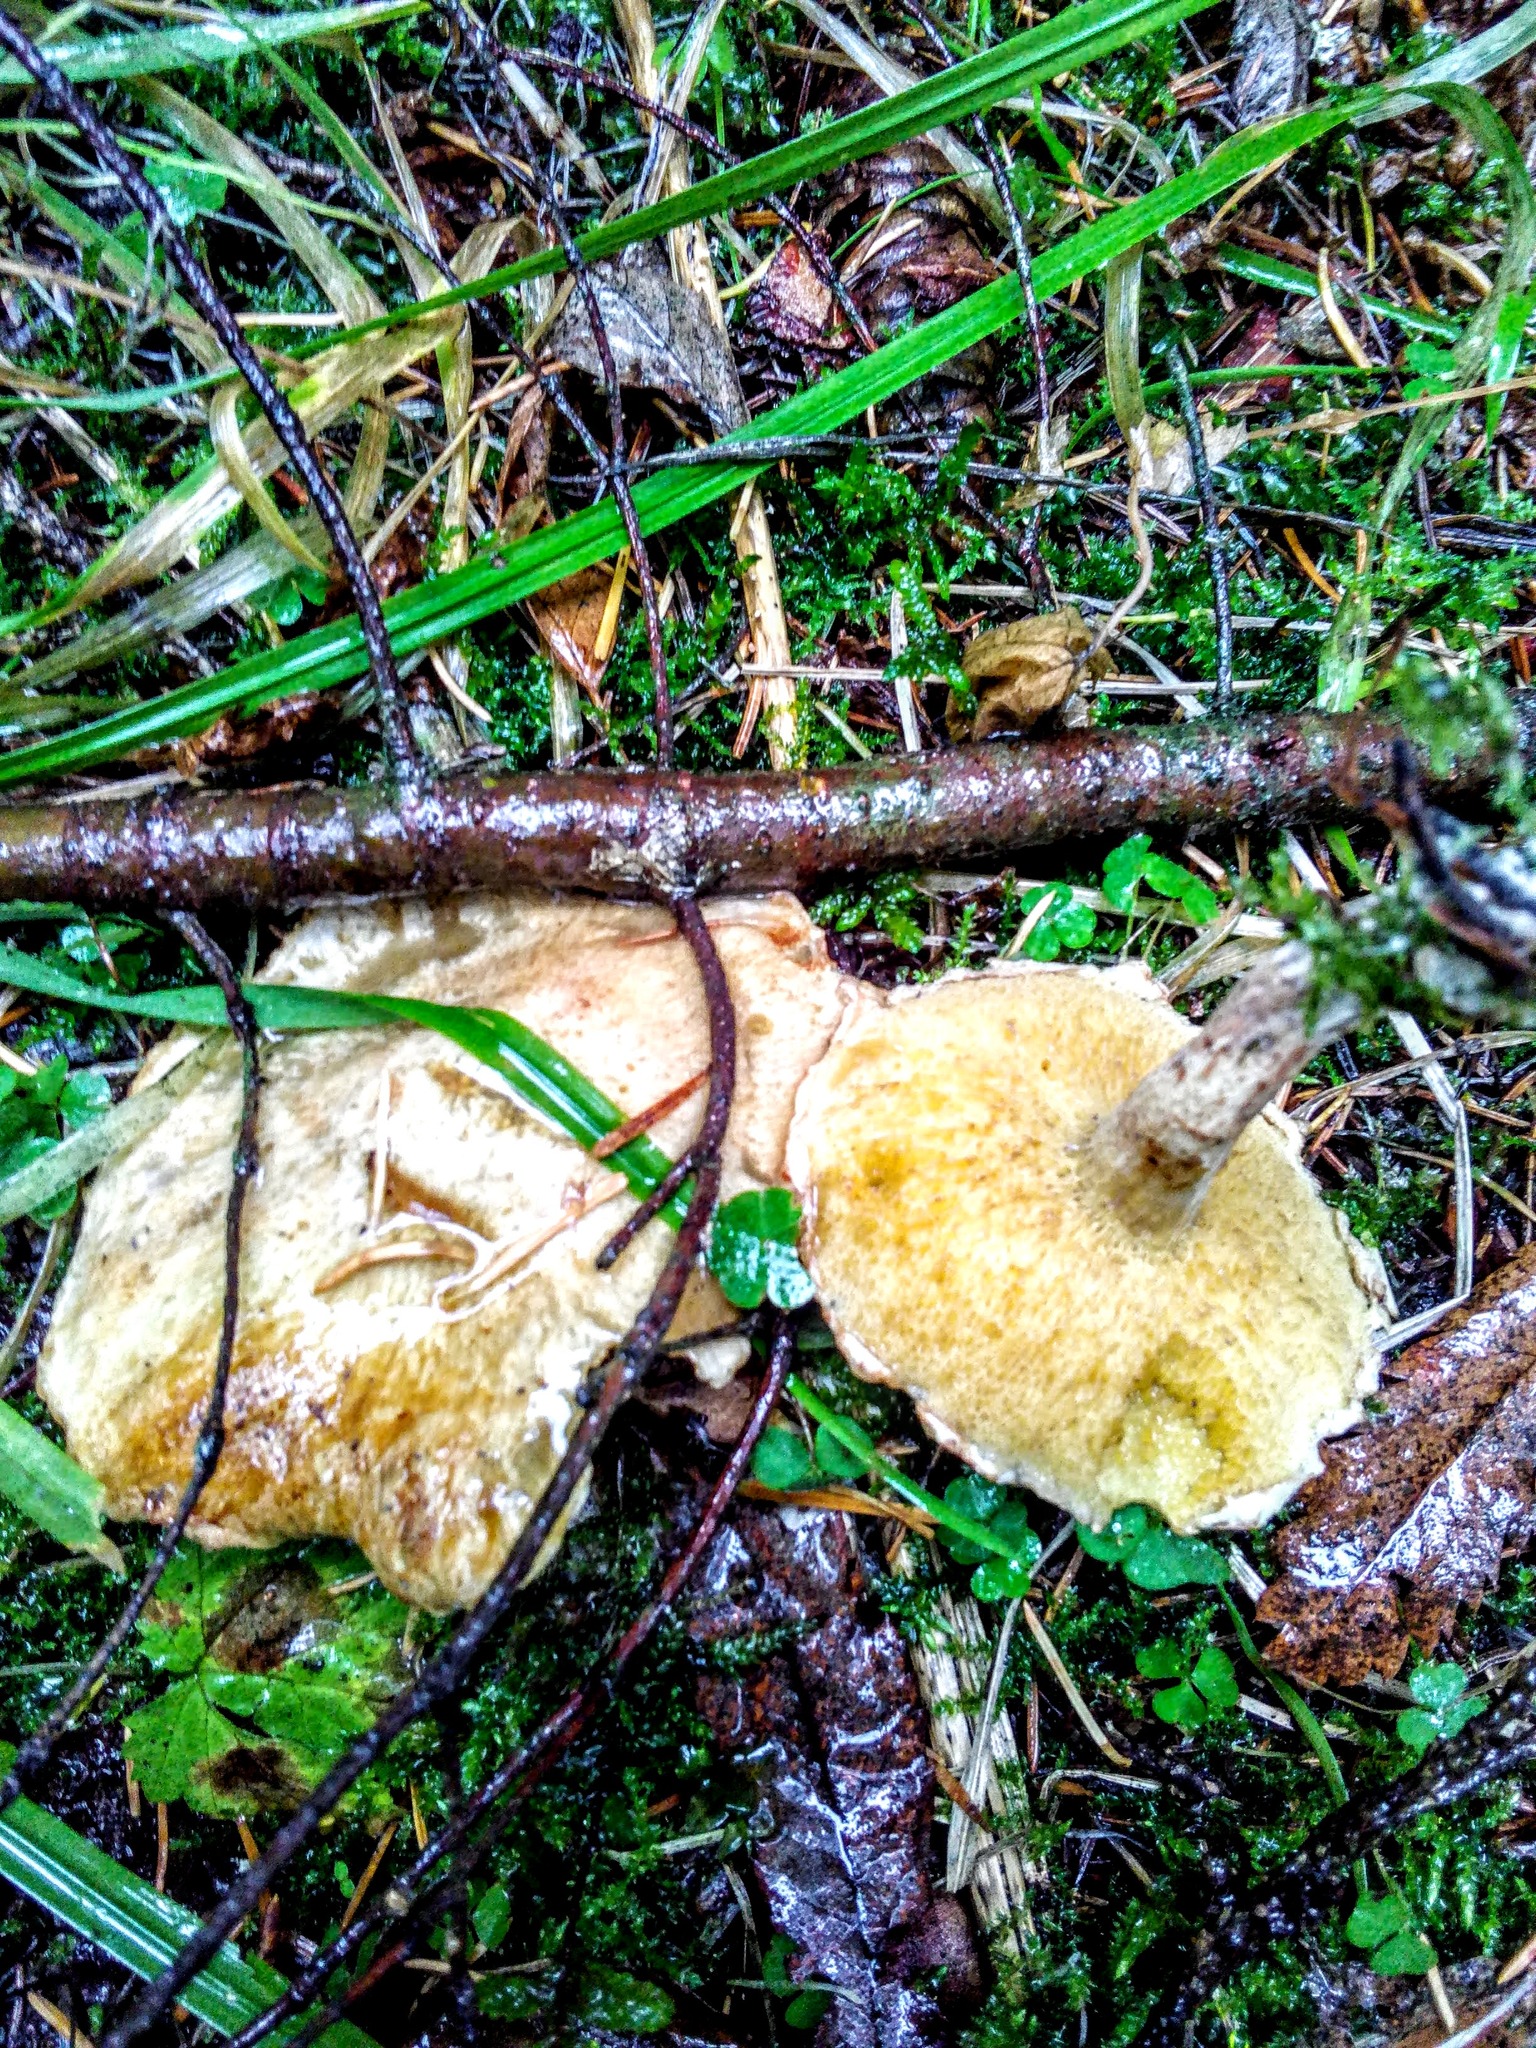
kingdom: Fungi
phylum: Basidiomycota
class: Agaricomycetes
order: Boletales
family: Suillaceae
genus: Suillus
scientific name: Suillus acidus
